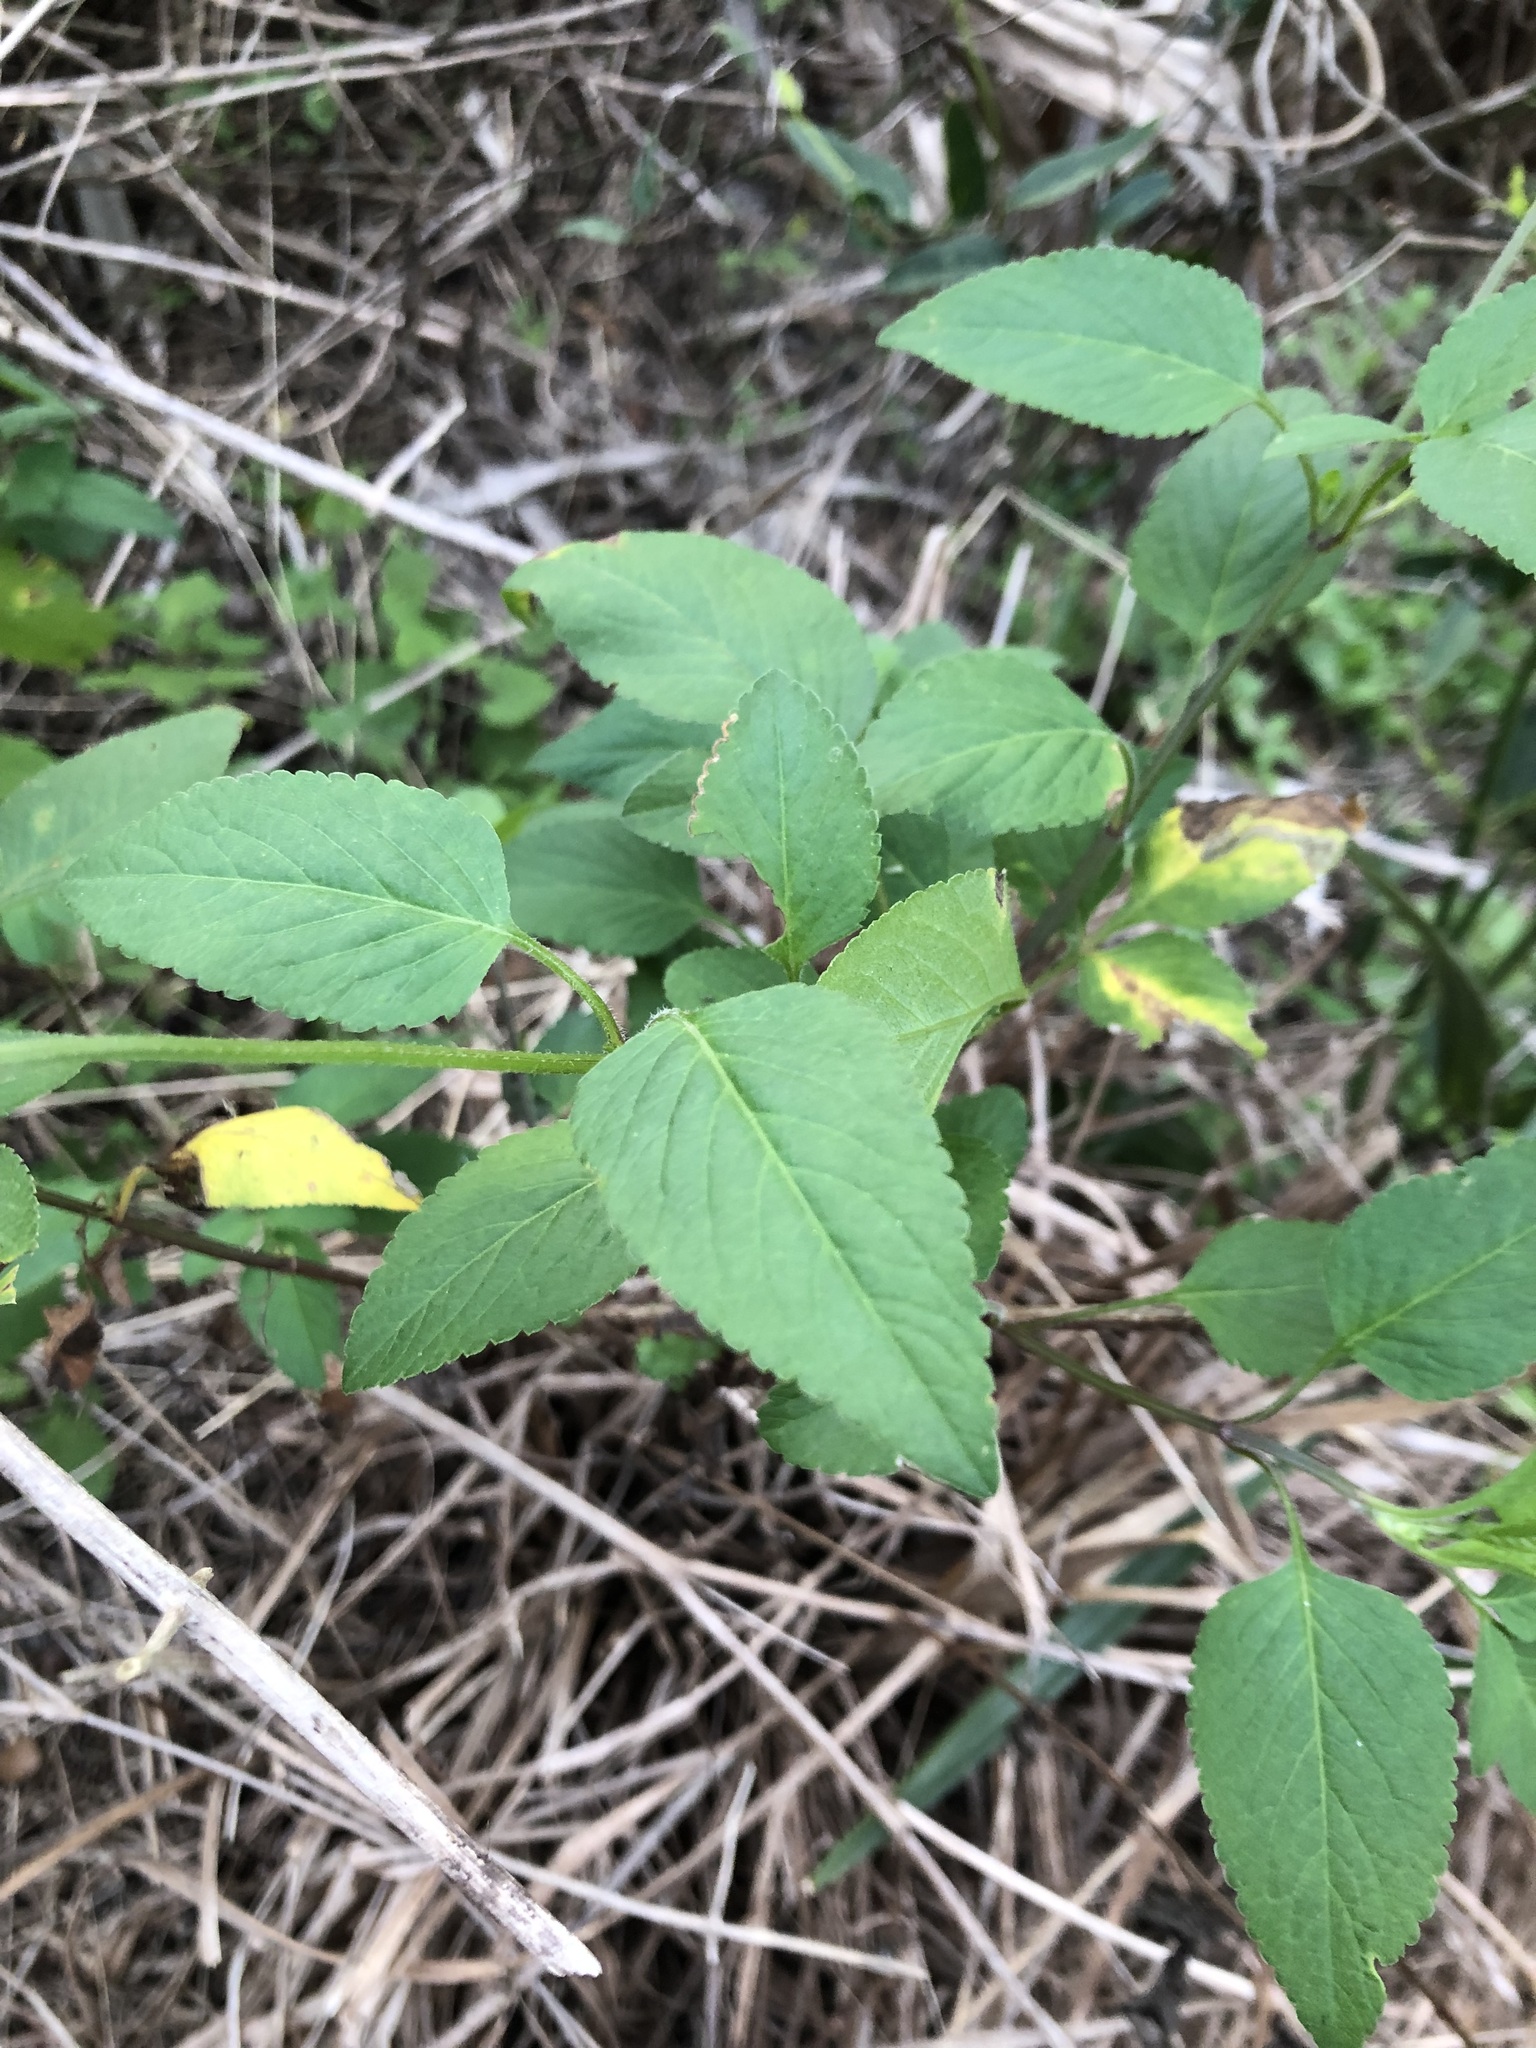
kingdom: Plantae
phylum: Tracheophyta
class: Magnoliopsida
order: Asterales
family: Asteraceae
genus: Bidens
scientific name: Bidens alba
